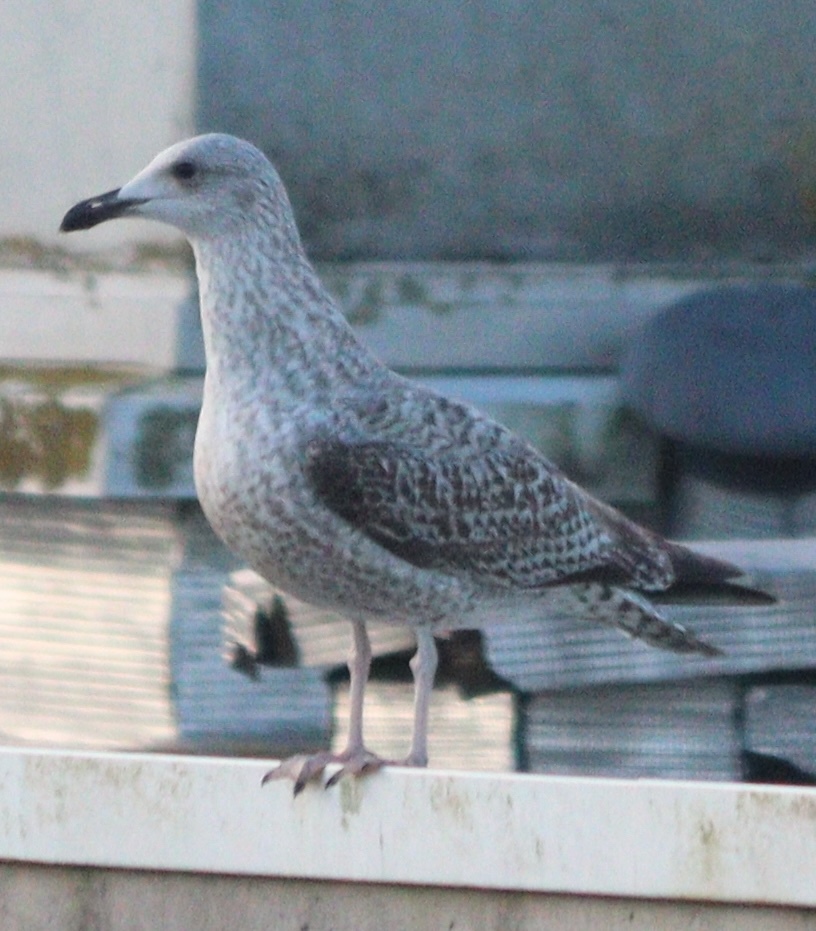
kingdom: Animalia
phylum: Chordata
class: Aves
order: Charadriiformes
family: Laridae
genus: Larus
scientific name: Larus argentatus
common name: Herring gull
